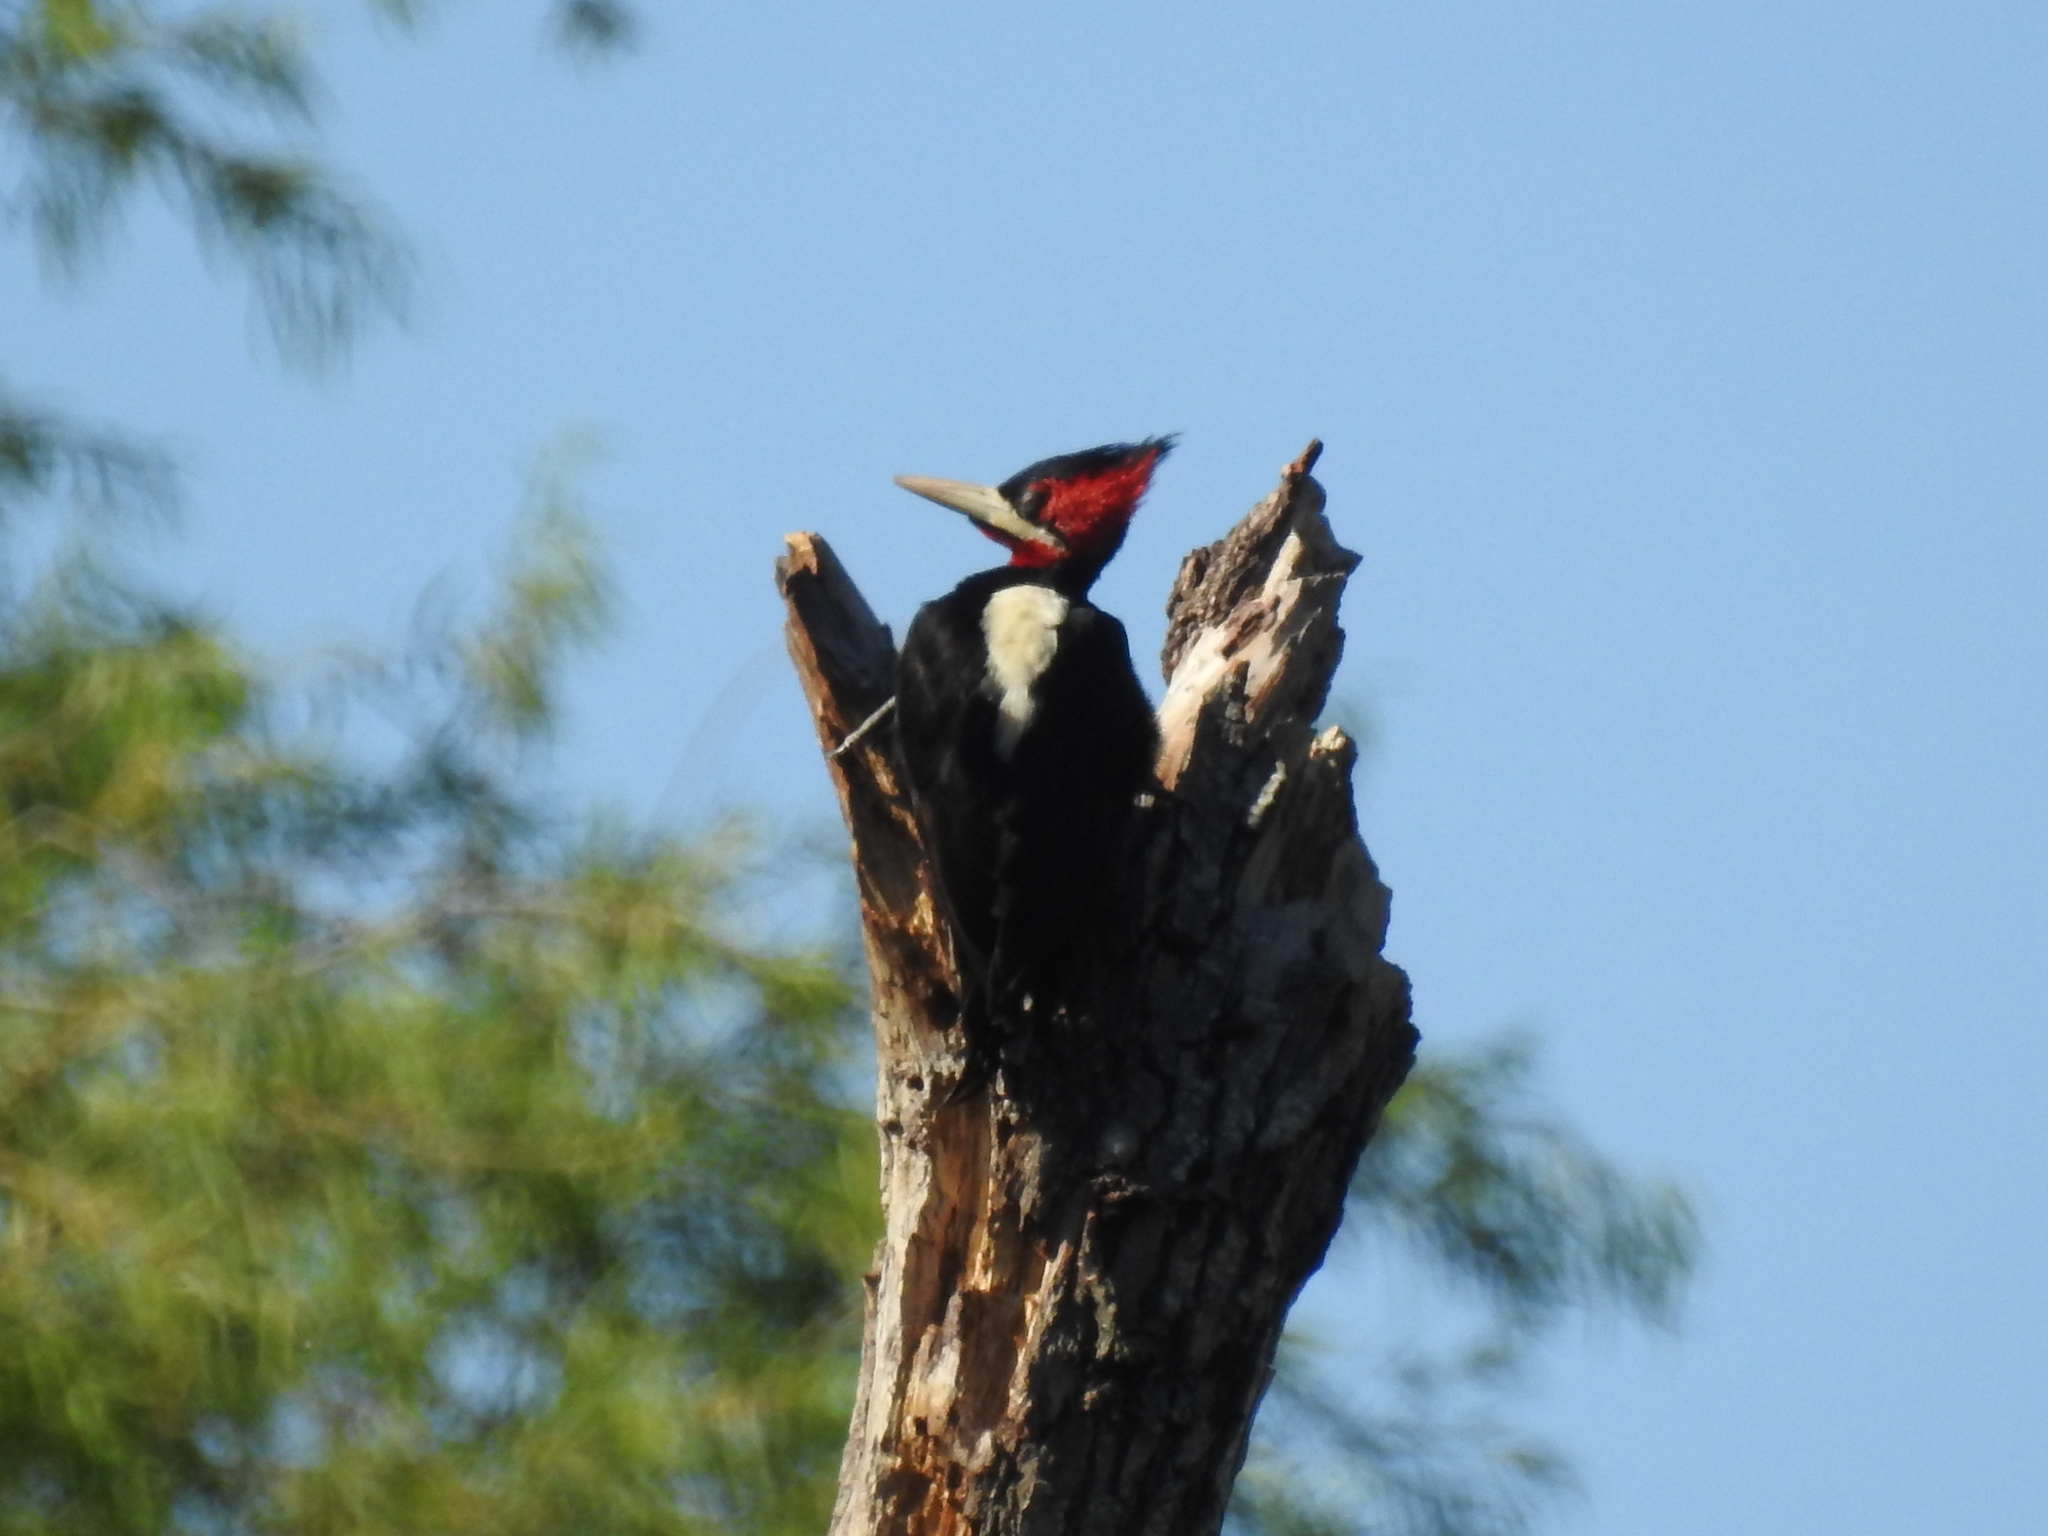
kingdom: Animalia
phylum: Chordata
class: Aves
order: Piciformes
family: Picidae
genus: Campephilus
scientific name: Campephilus leucopogon
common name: Cream-backed woodpecker
